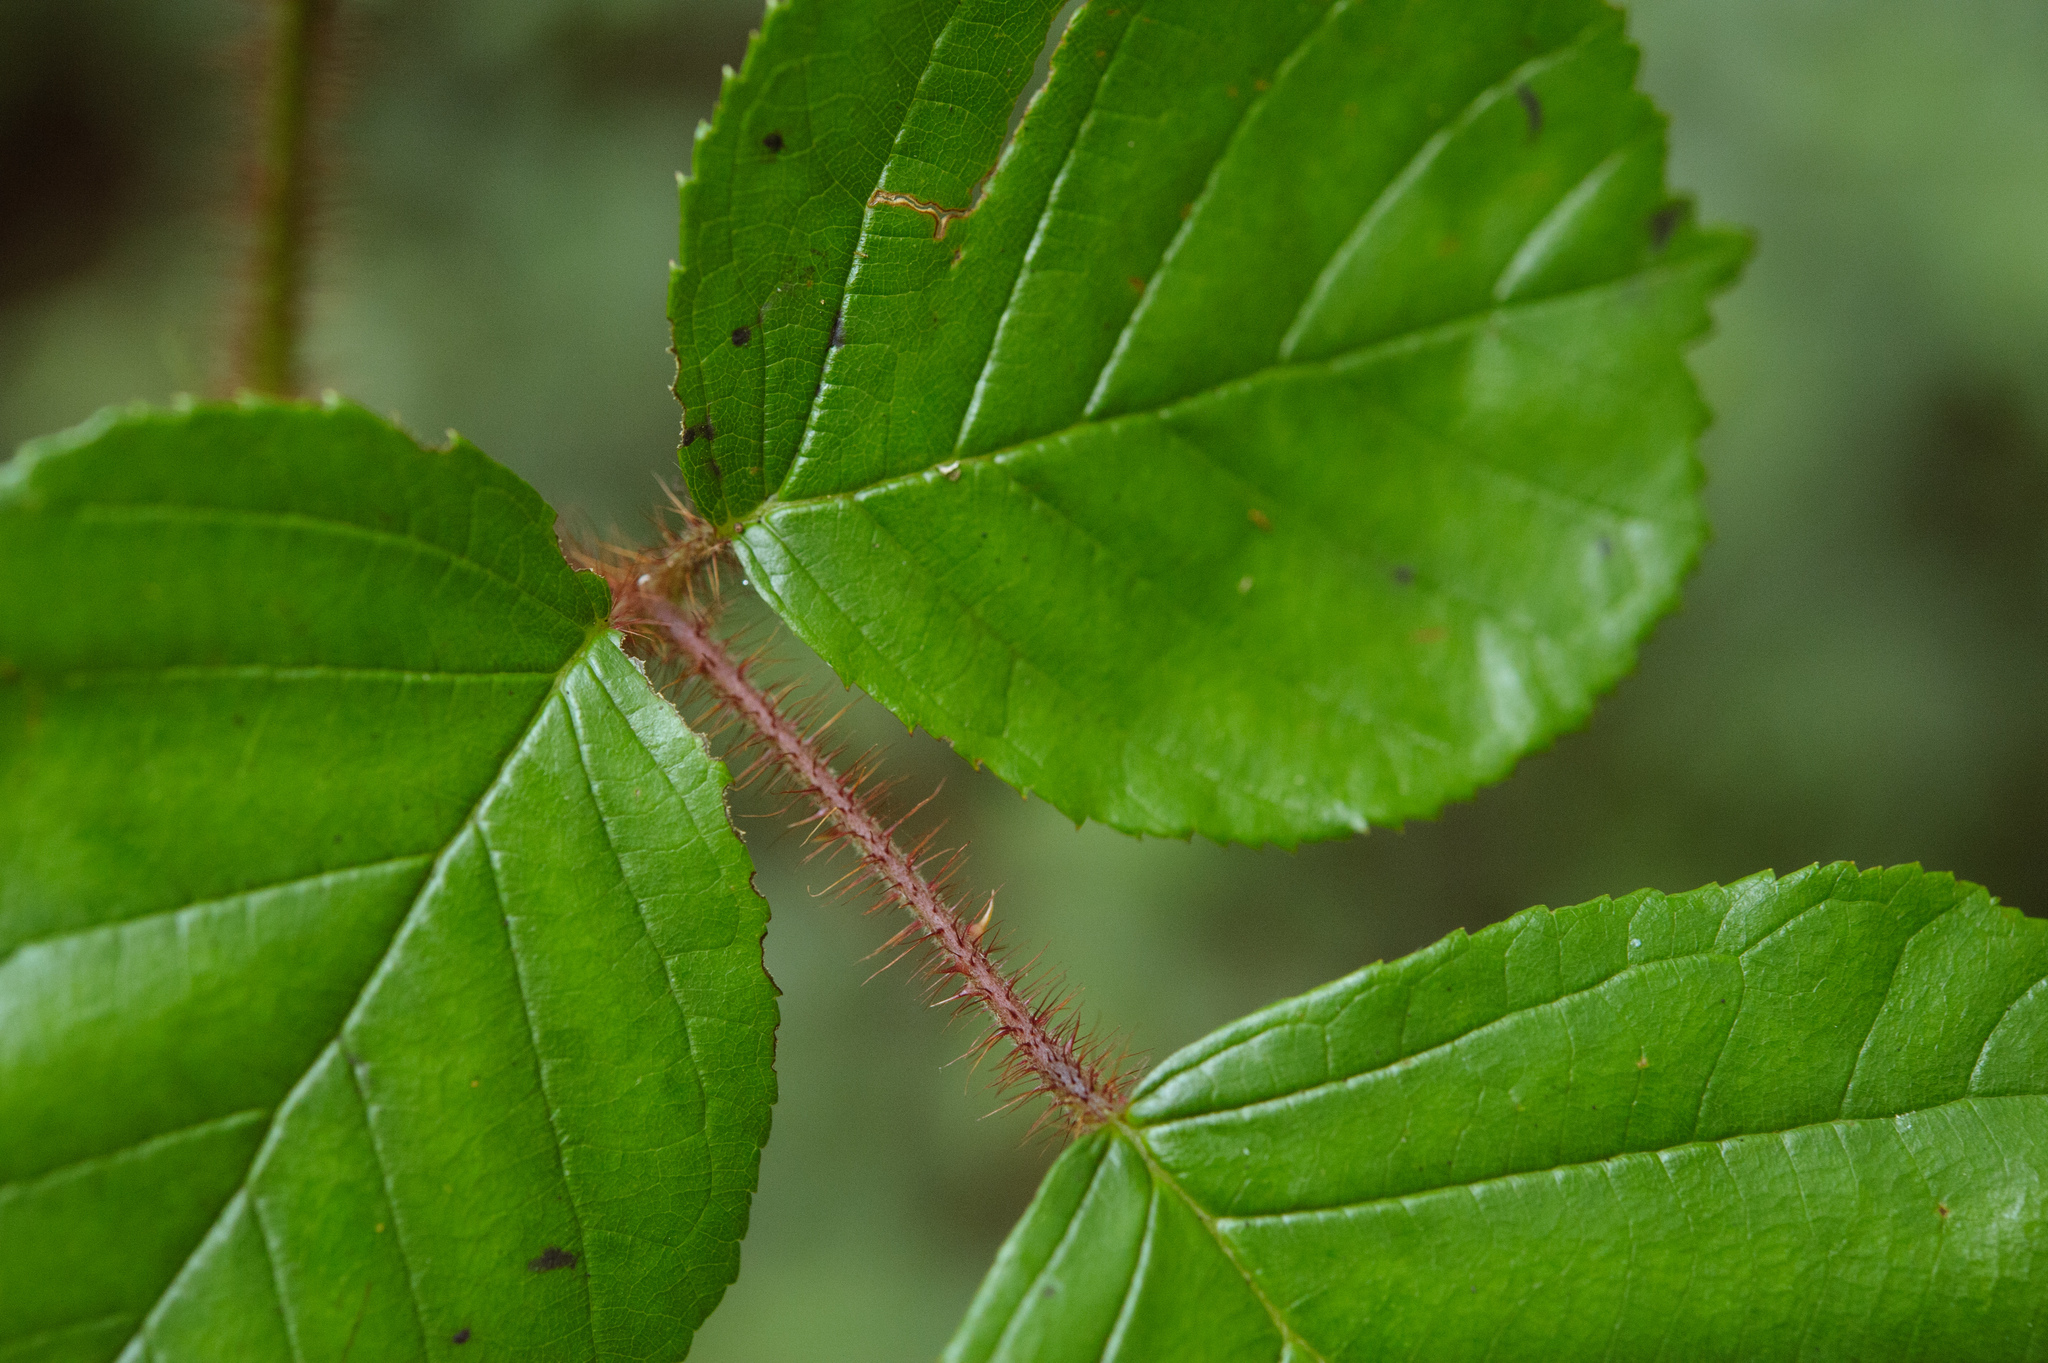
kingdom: Plantae
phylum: Tracheophyta
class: Magnoliopsida
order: Rosales
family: Rosaceae
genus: Rubus
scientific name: Rubus ellipticus
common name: Cheeseberry
